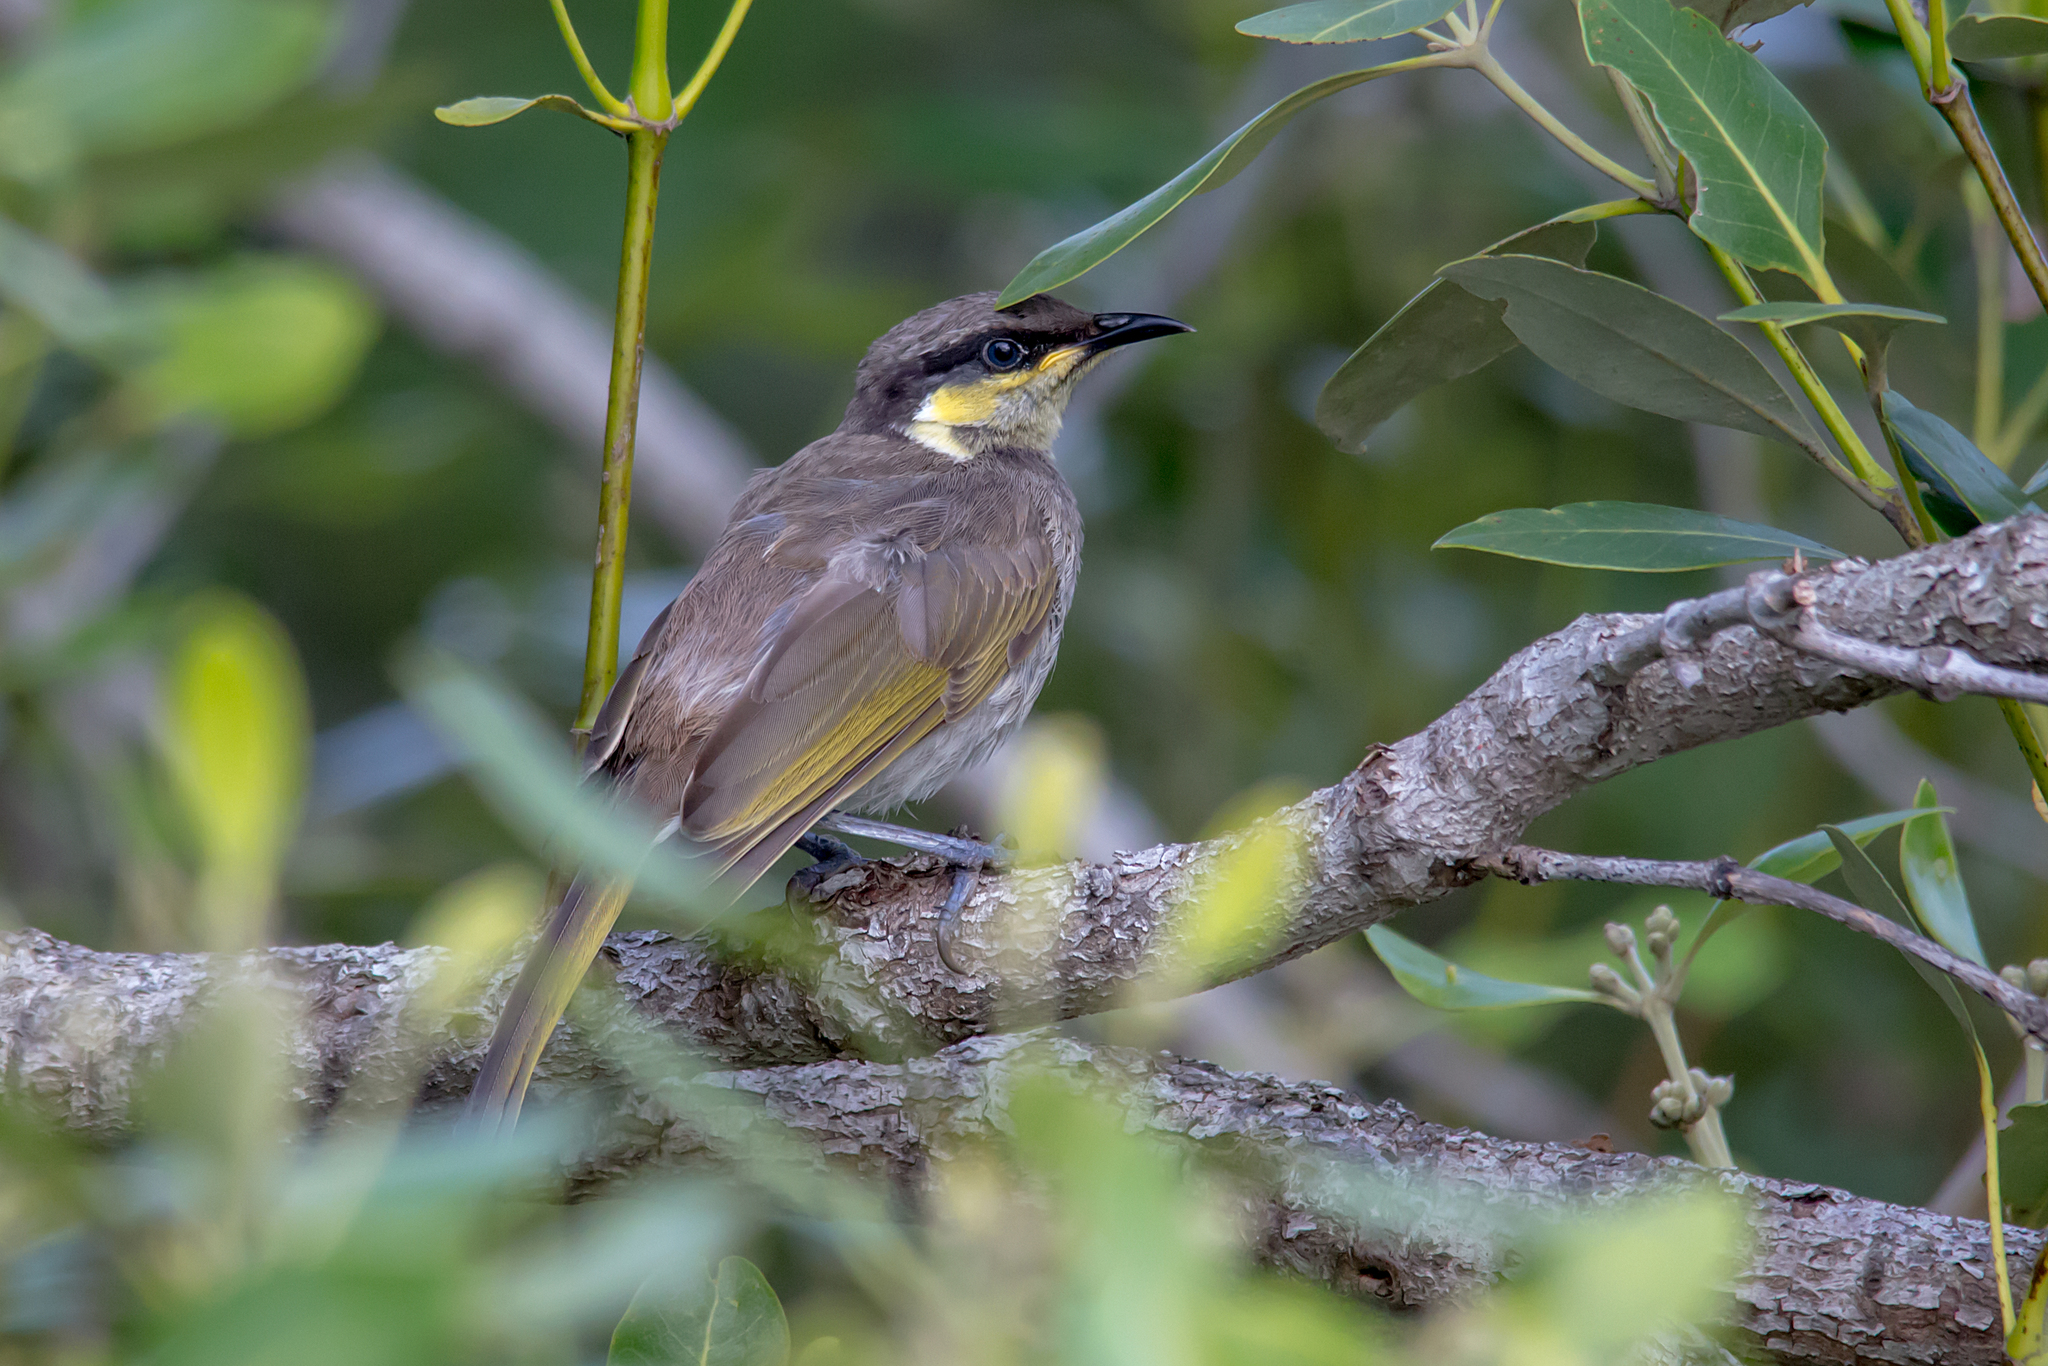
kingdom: Animalia
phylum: Chordata
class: Aves
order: Passeriformes
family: Meliphagidae
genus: Gavicalis
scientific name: Gavicalis fasciogularis
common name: Mangrove honeyeater
